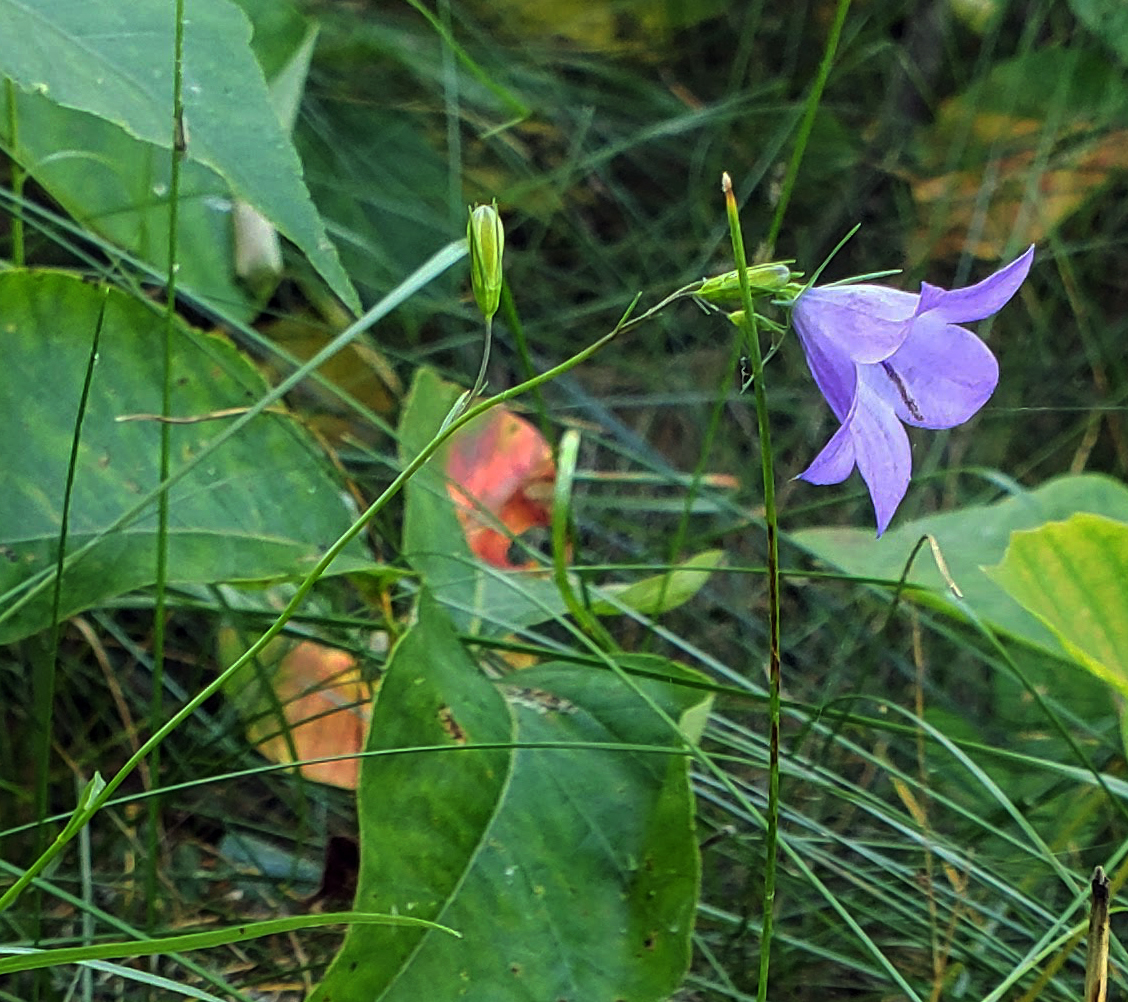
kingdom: Plantae
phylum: Tracheophyta
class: Magnoliopsida
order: Asterales
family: Campanulaceae
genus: Campanula
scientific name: Campanula intercedens
